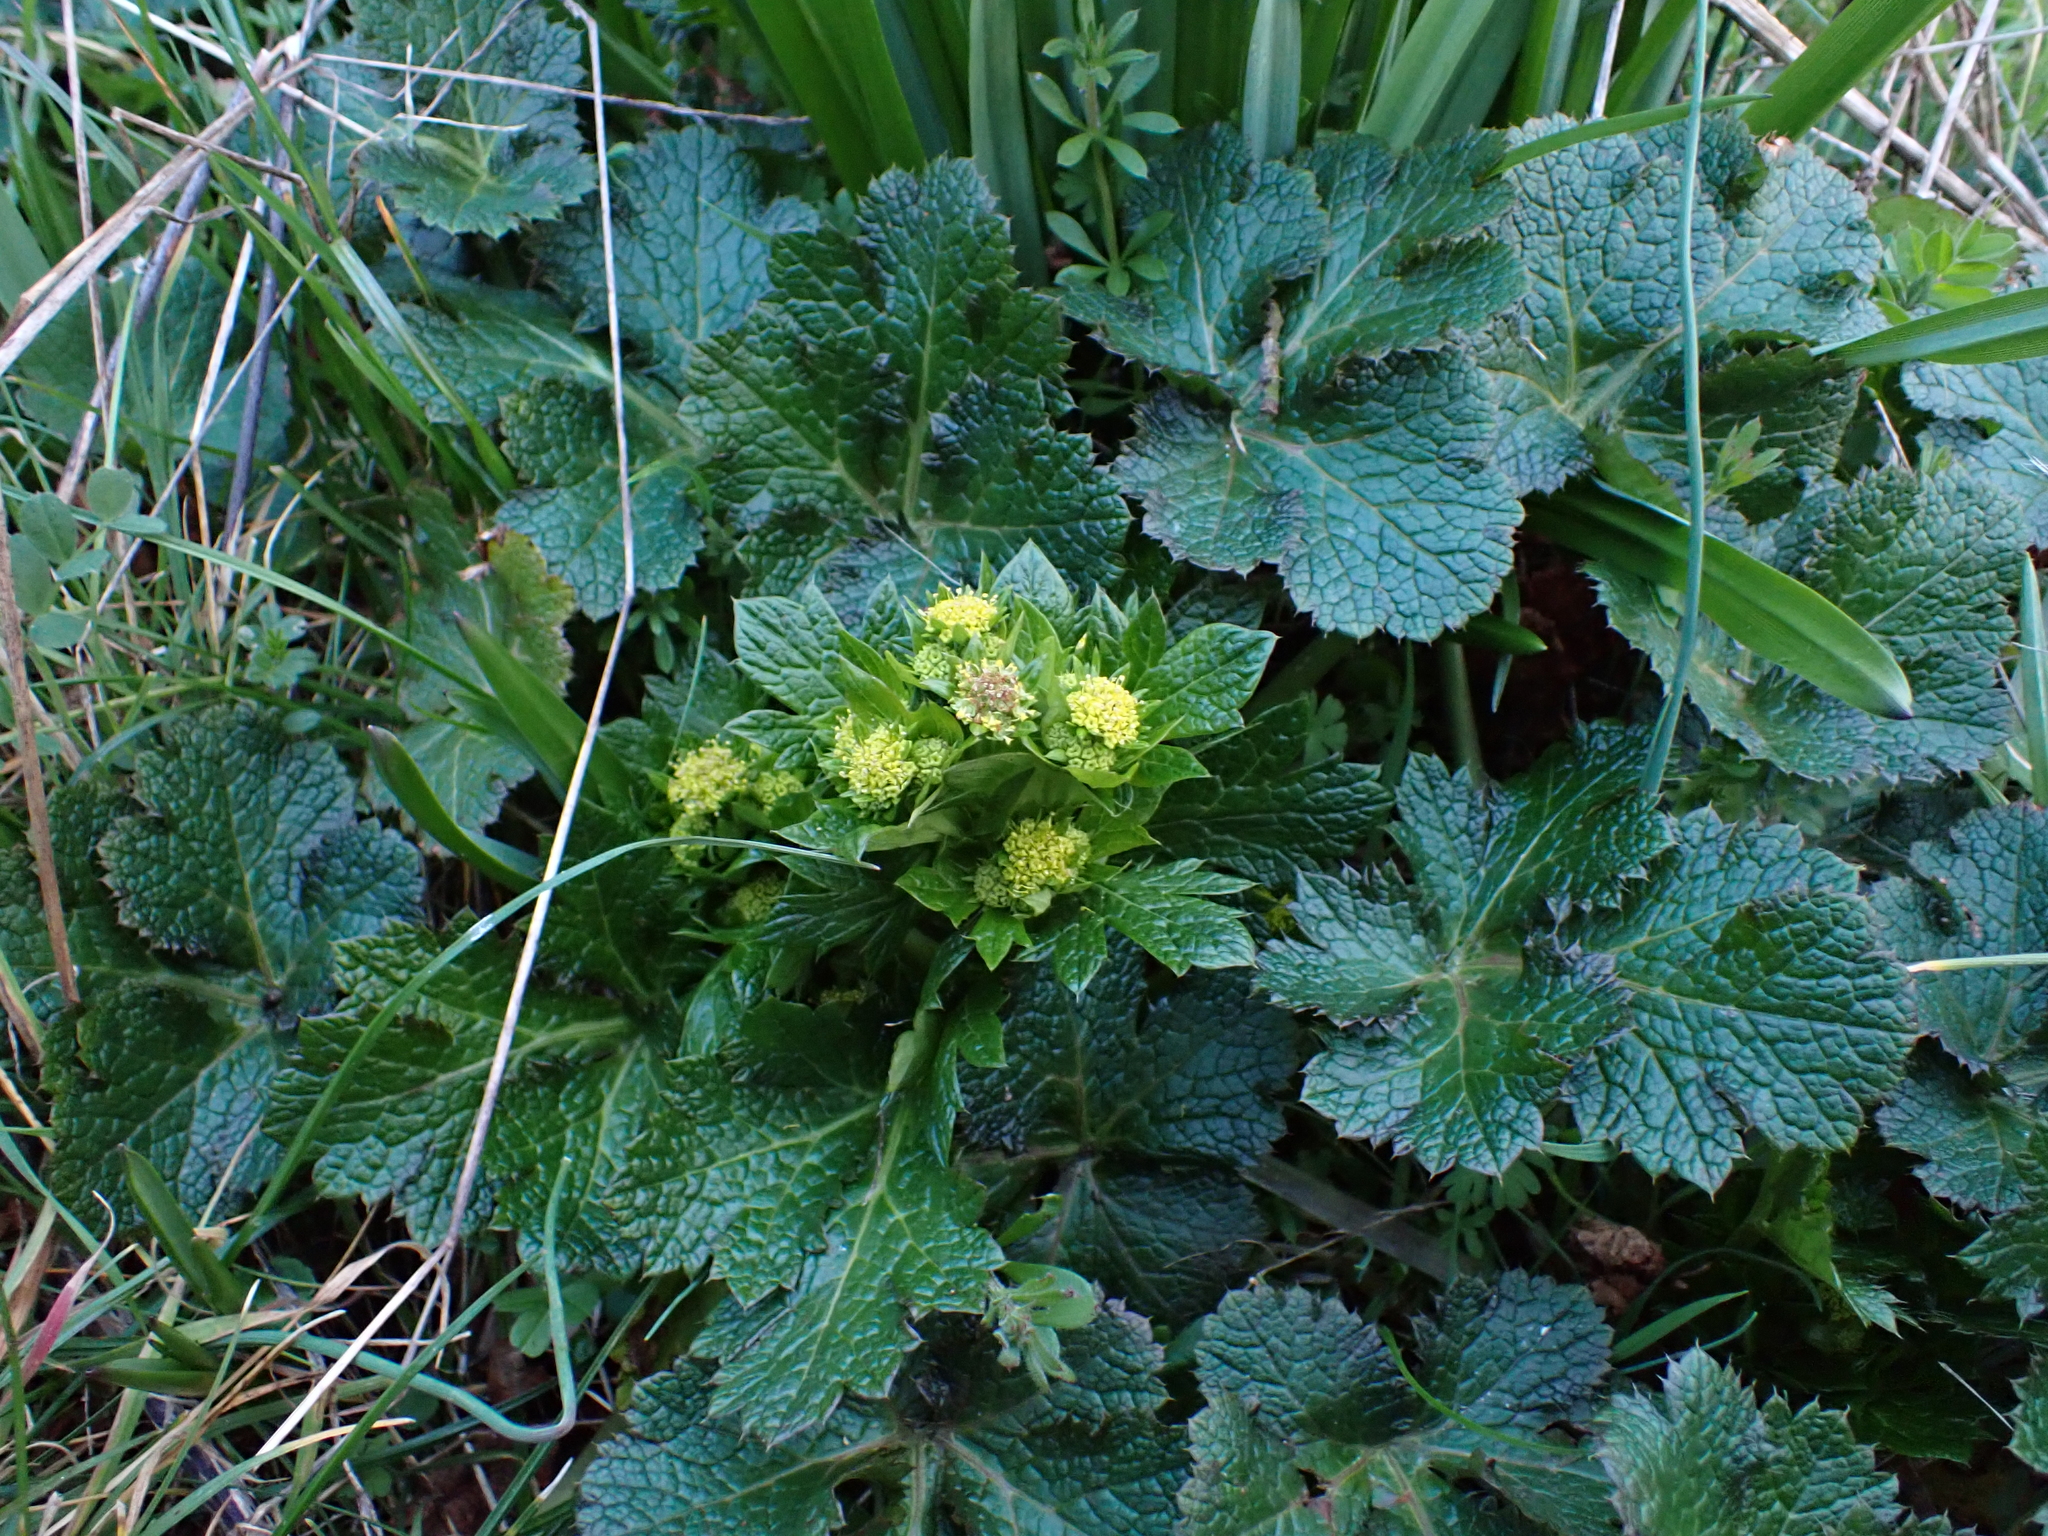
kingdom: Plantae
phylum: Tracheophyta
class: Magnoliopsida
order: Apiales
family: Apiaceae
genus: Sanicula
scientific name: Sanicula crassicaulis
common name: Western snakeroot
